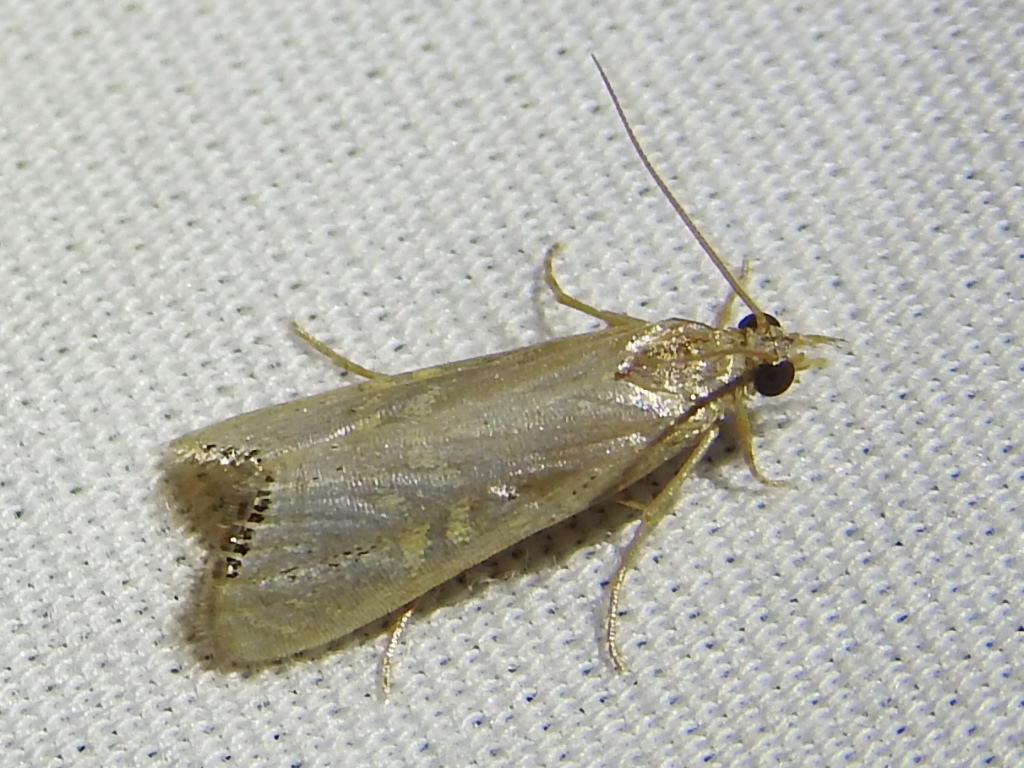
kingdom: Animalia
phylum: Arthropoda
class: Insecta
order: Lepidoptera
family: Crambidae
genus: Euchromius
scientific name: Euchromius ocellea
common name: Necklace veneer moth
